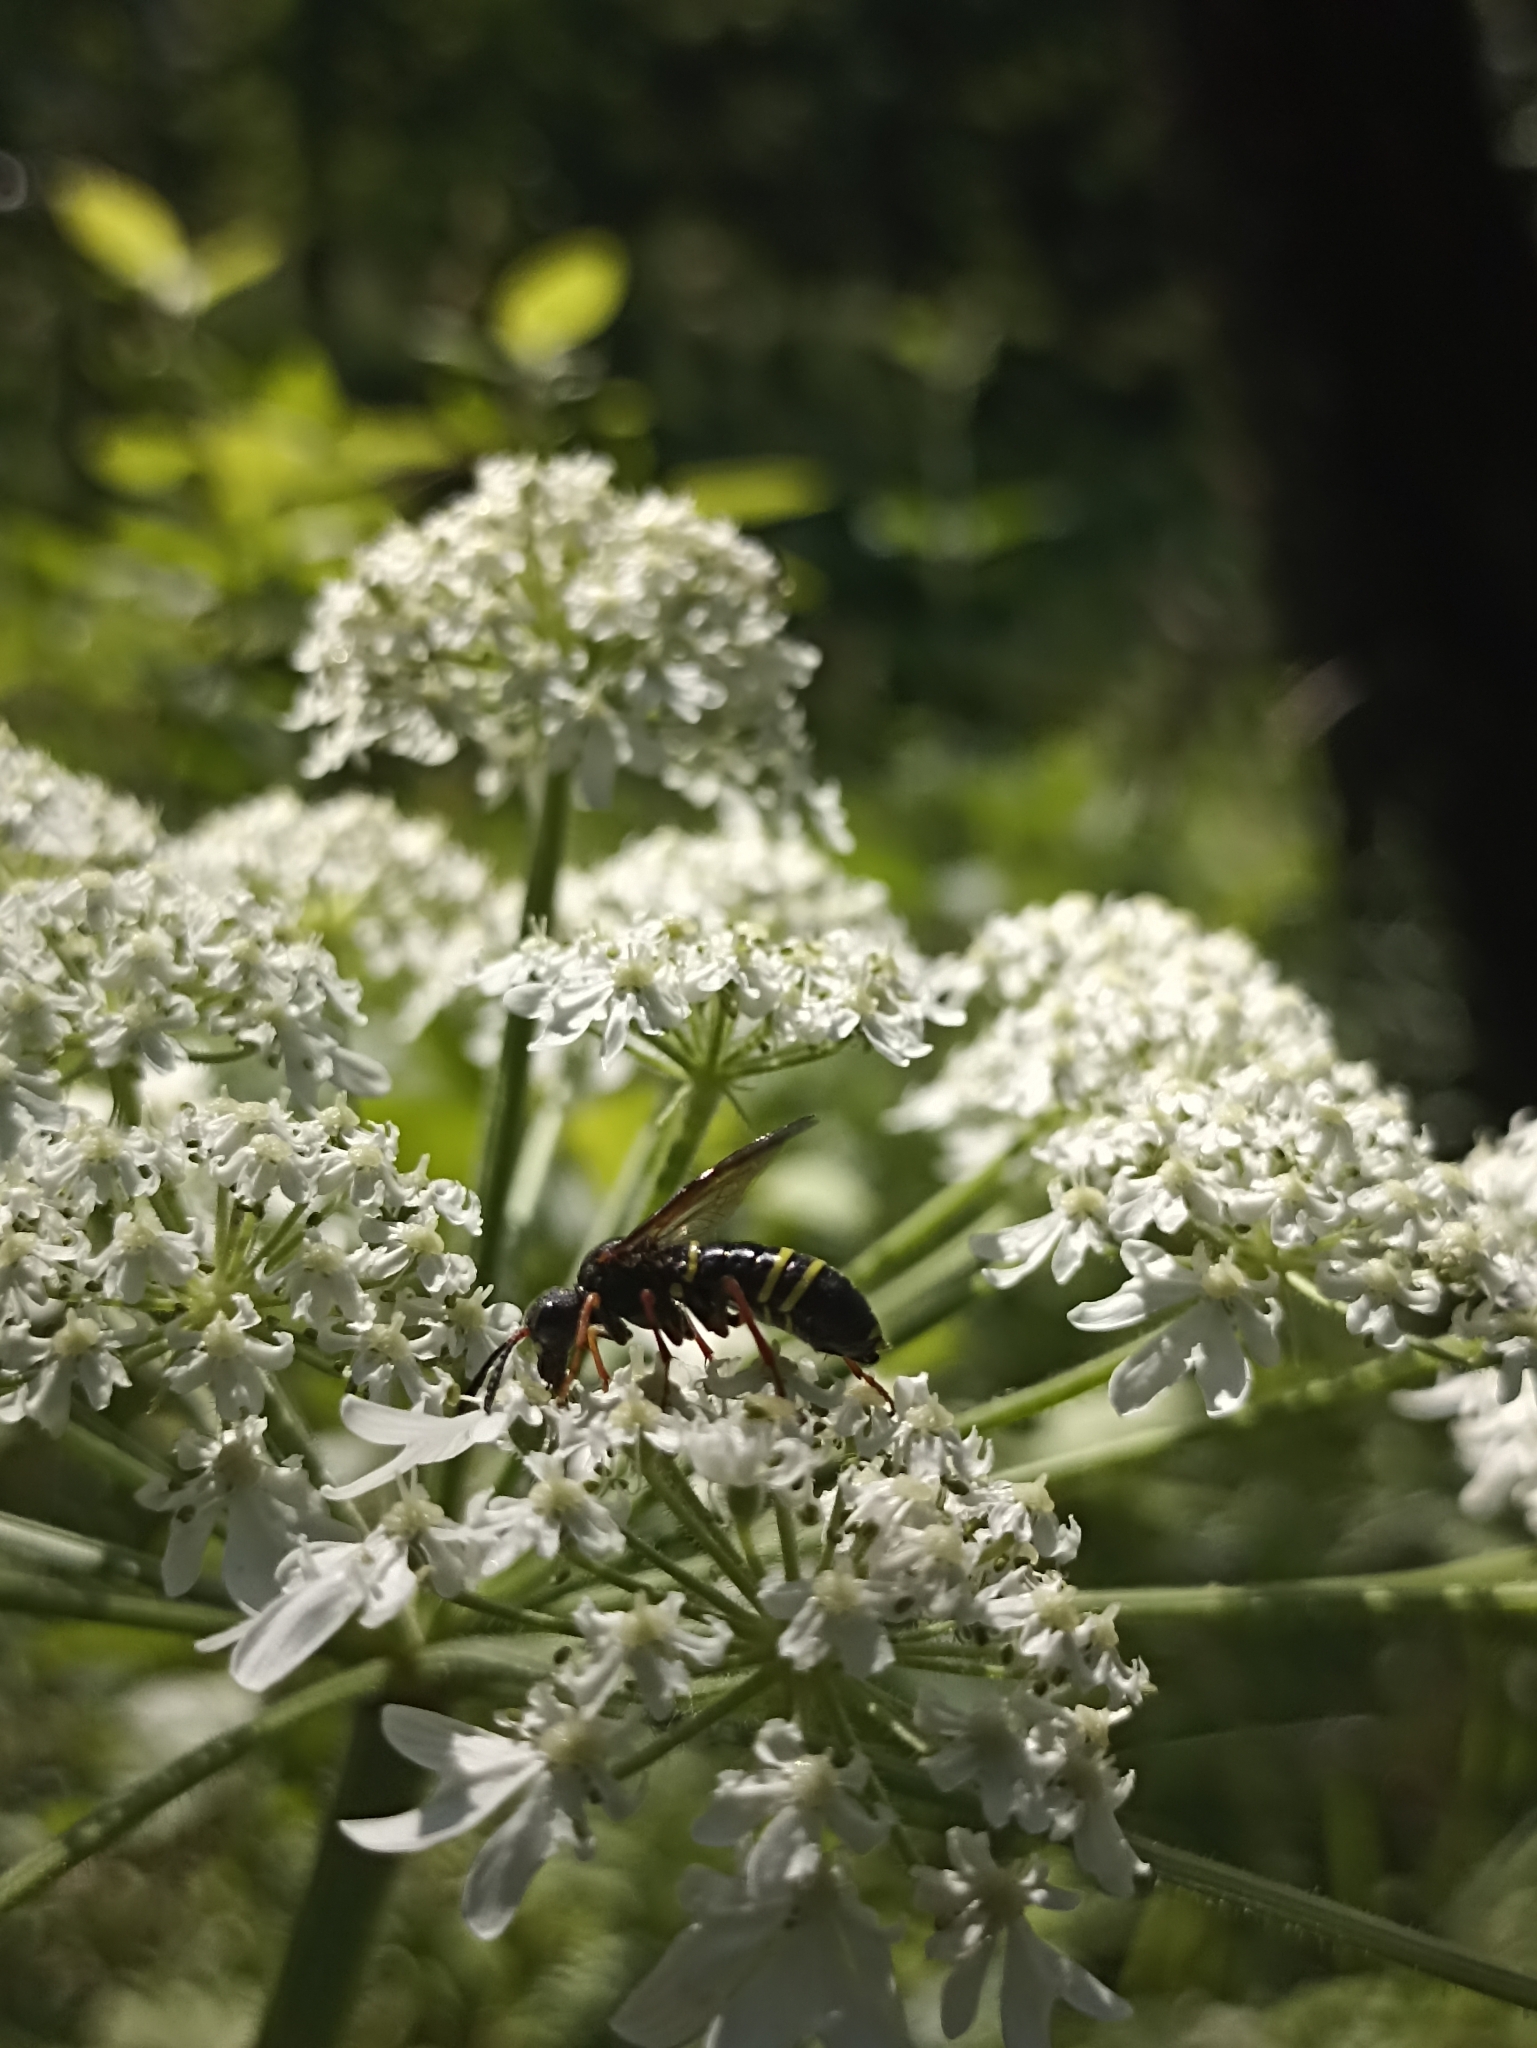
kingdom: Animalia
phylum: Arthropoda
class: Insecta
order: Hymenoptera
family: Tenthredinidae
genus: Tenthredo
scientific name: Tenthredo vespa
